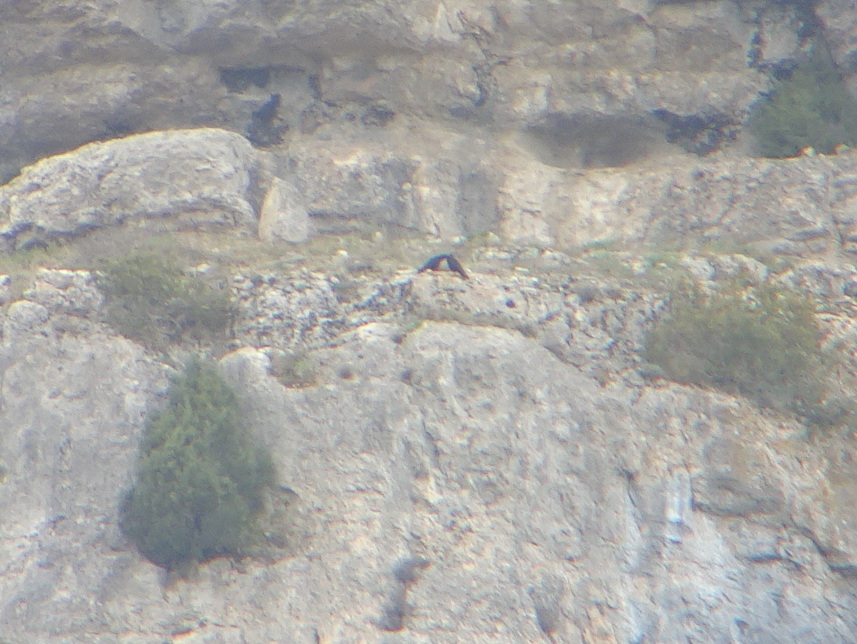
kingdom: Animalia
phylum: Chordata
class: Aves
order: Passeriformes
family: Corvidae
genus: Pyrrhocorax
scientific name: Pyrrhocorax pyrrhocorax
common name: Red-billed chough
